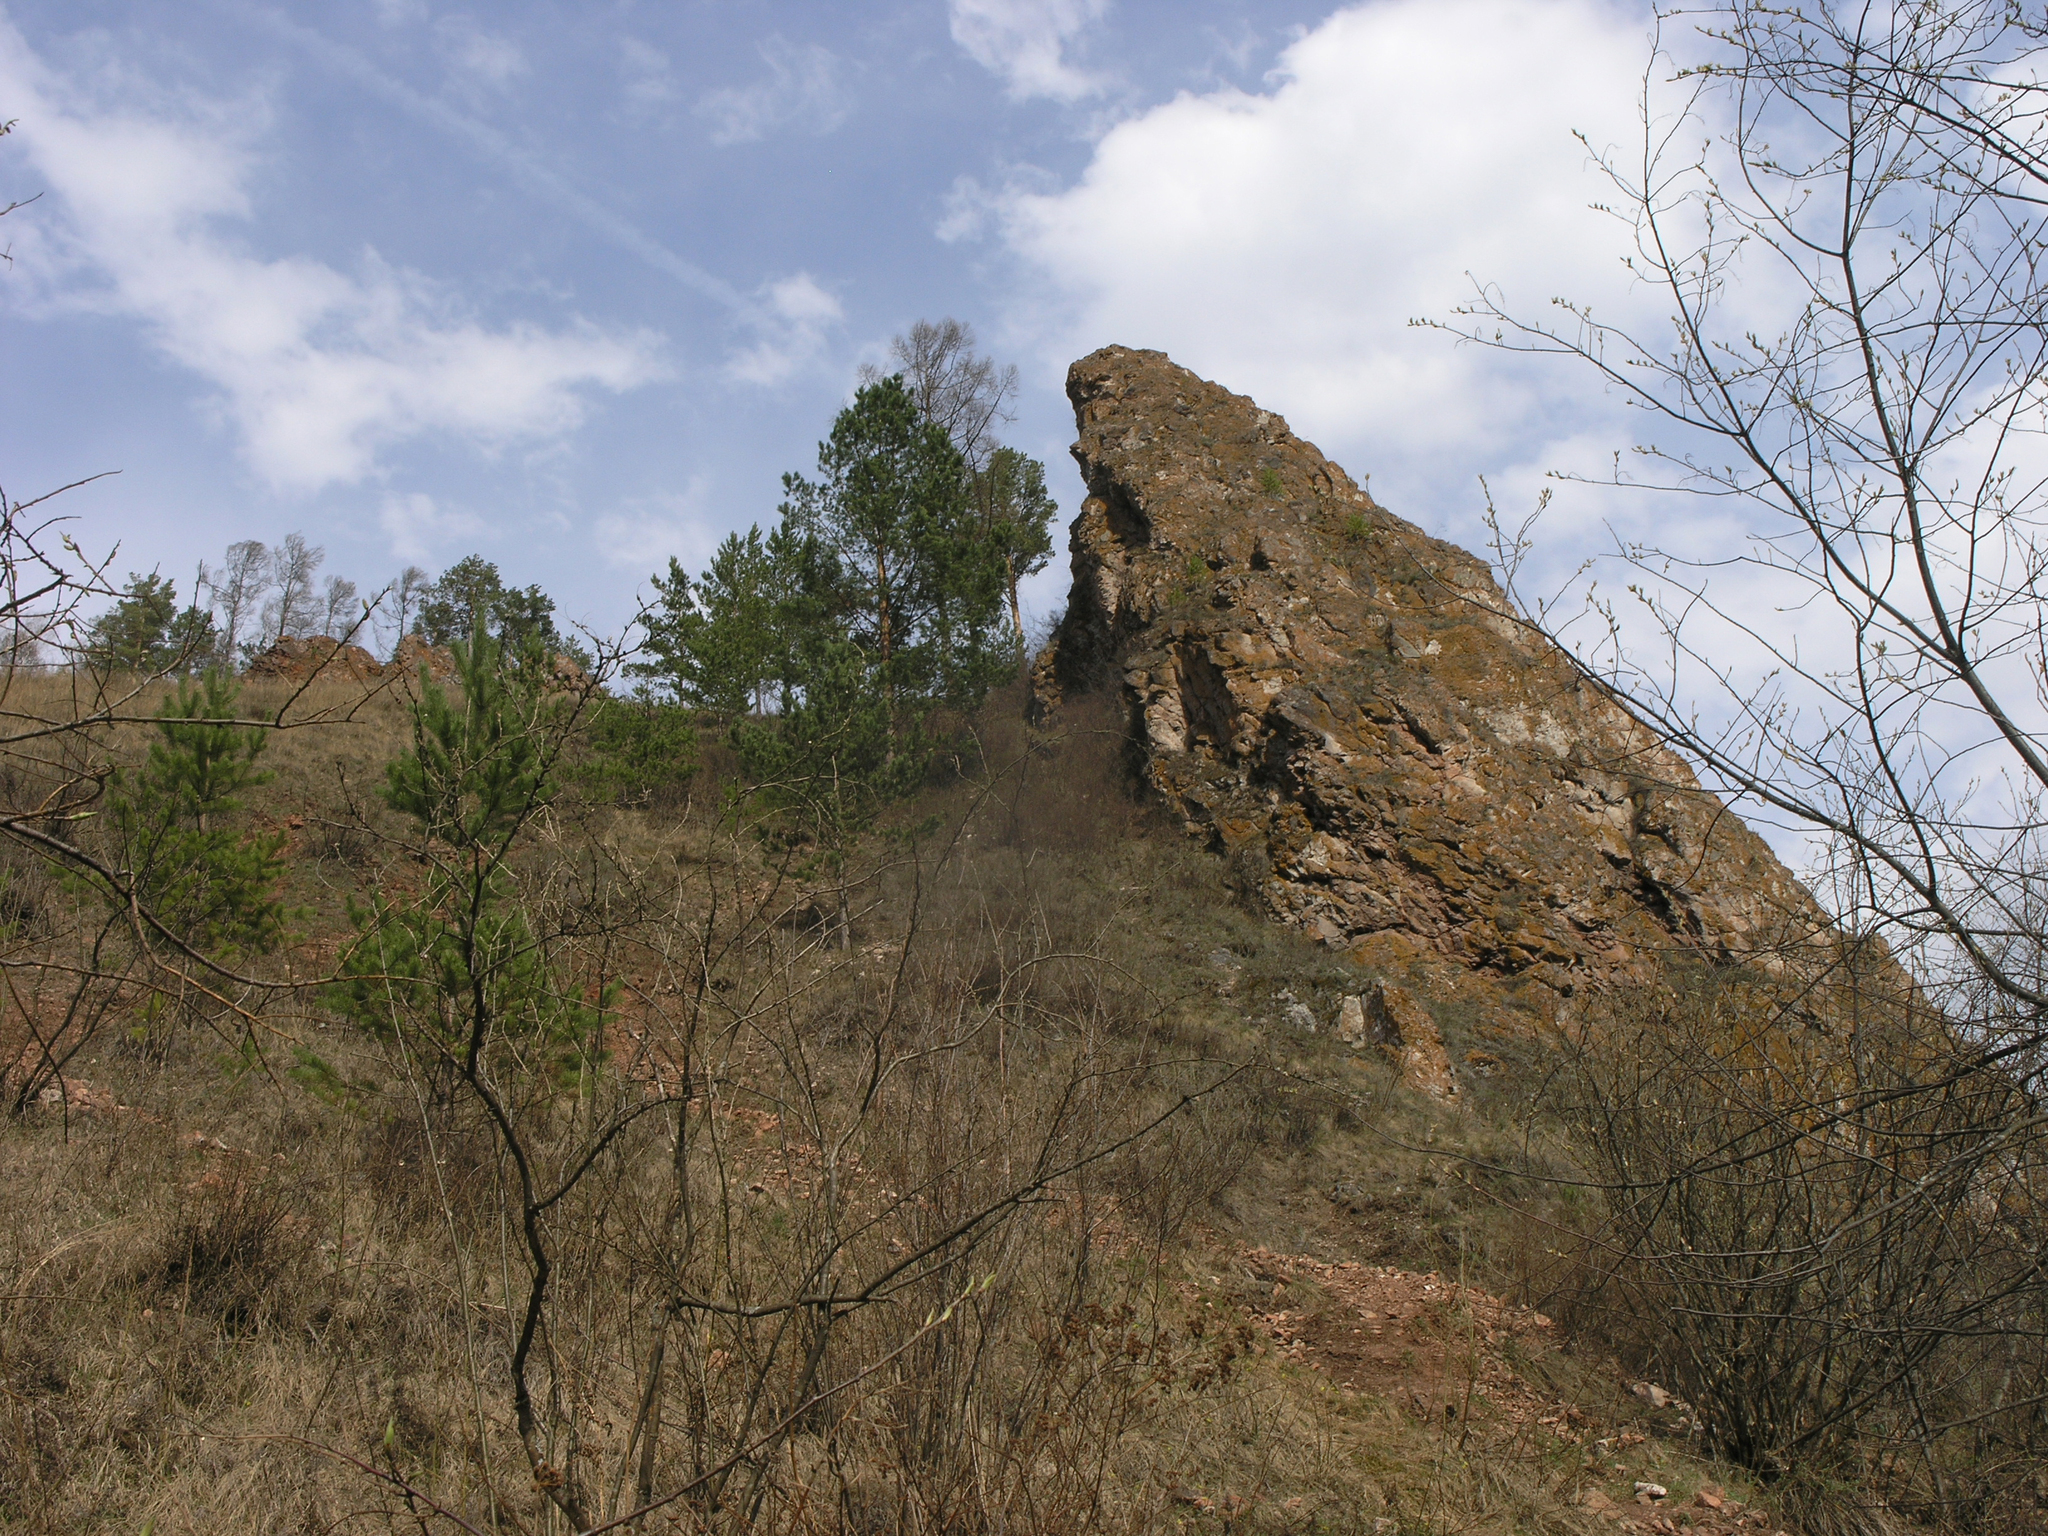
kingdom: Plantae
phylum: Tracheophyta
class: Pinopsida
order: Pinales
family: Pinaceae
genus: Pinus
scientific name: Pinus sylvestris
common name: Scots pine
